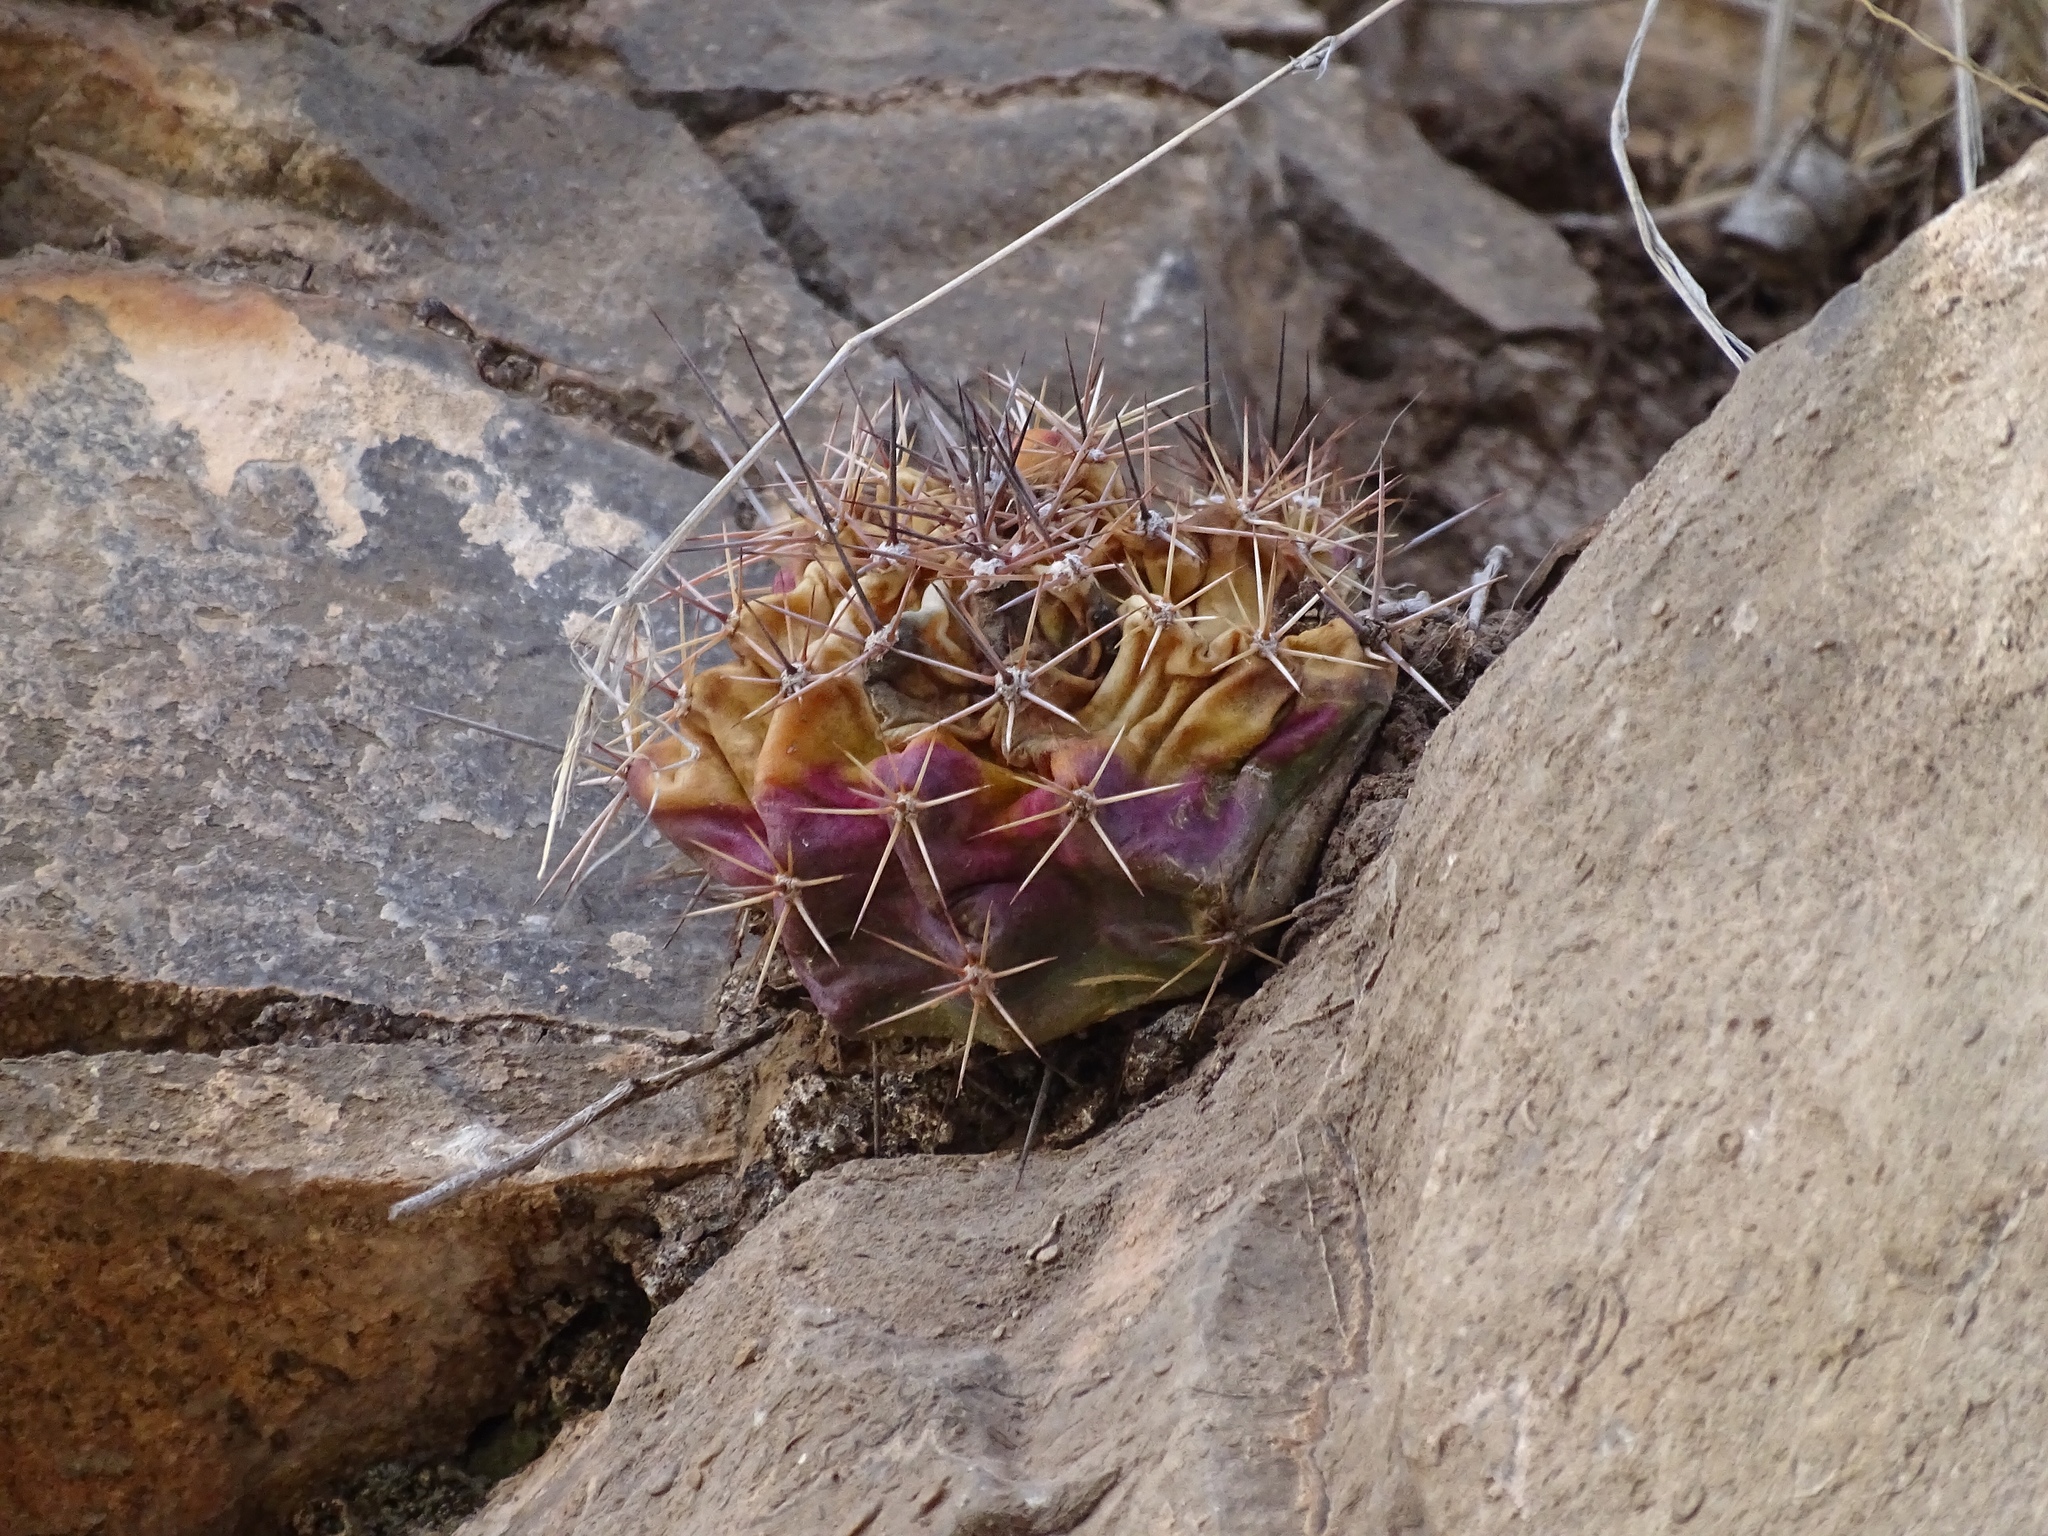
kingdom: Plantae
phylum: Tracheophyta
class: Magnoliopsida
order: Caryophyllales
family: Cactaceae
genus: Echinocereus
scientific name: Echinocereus coccineus
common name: Scarlet hedgehog cactus
